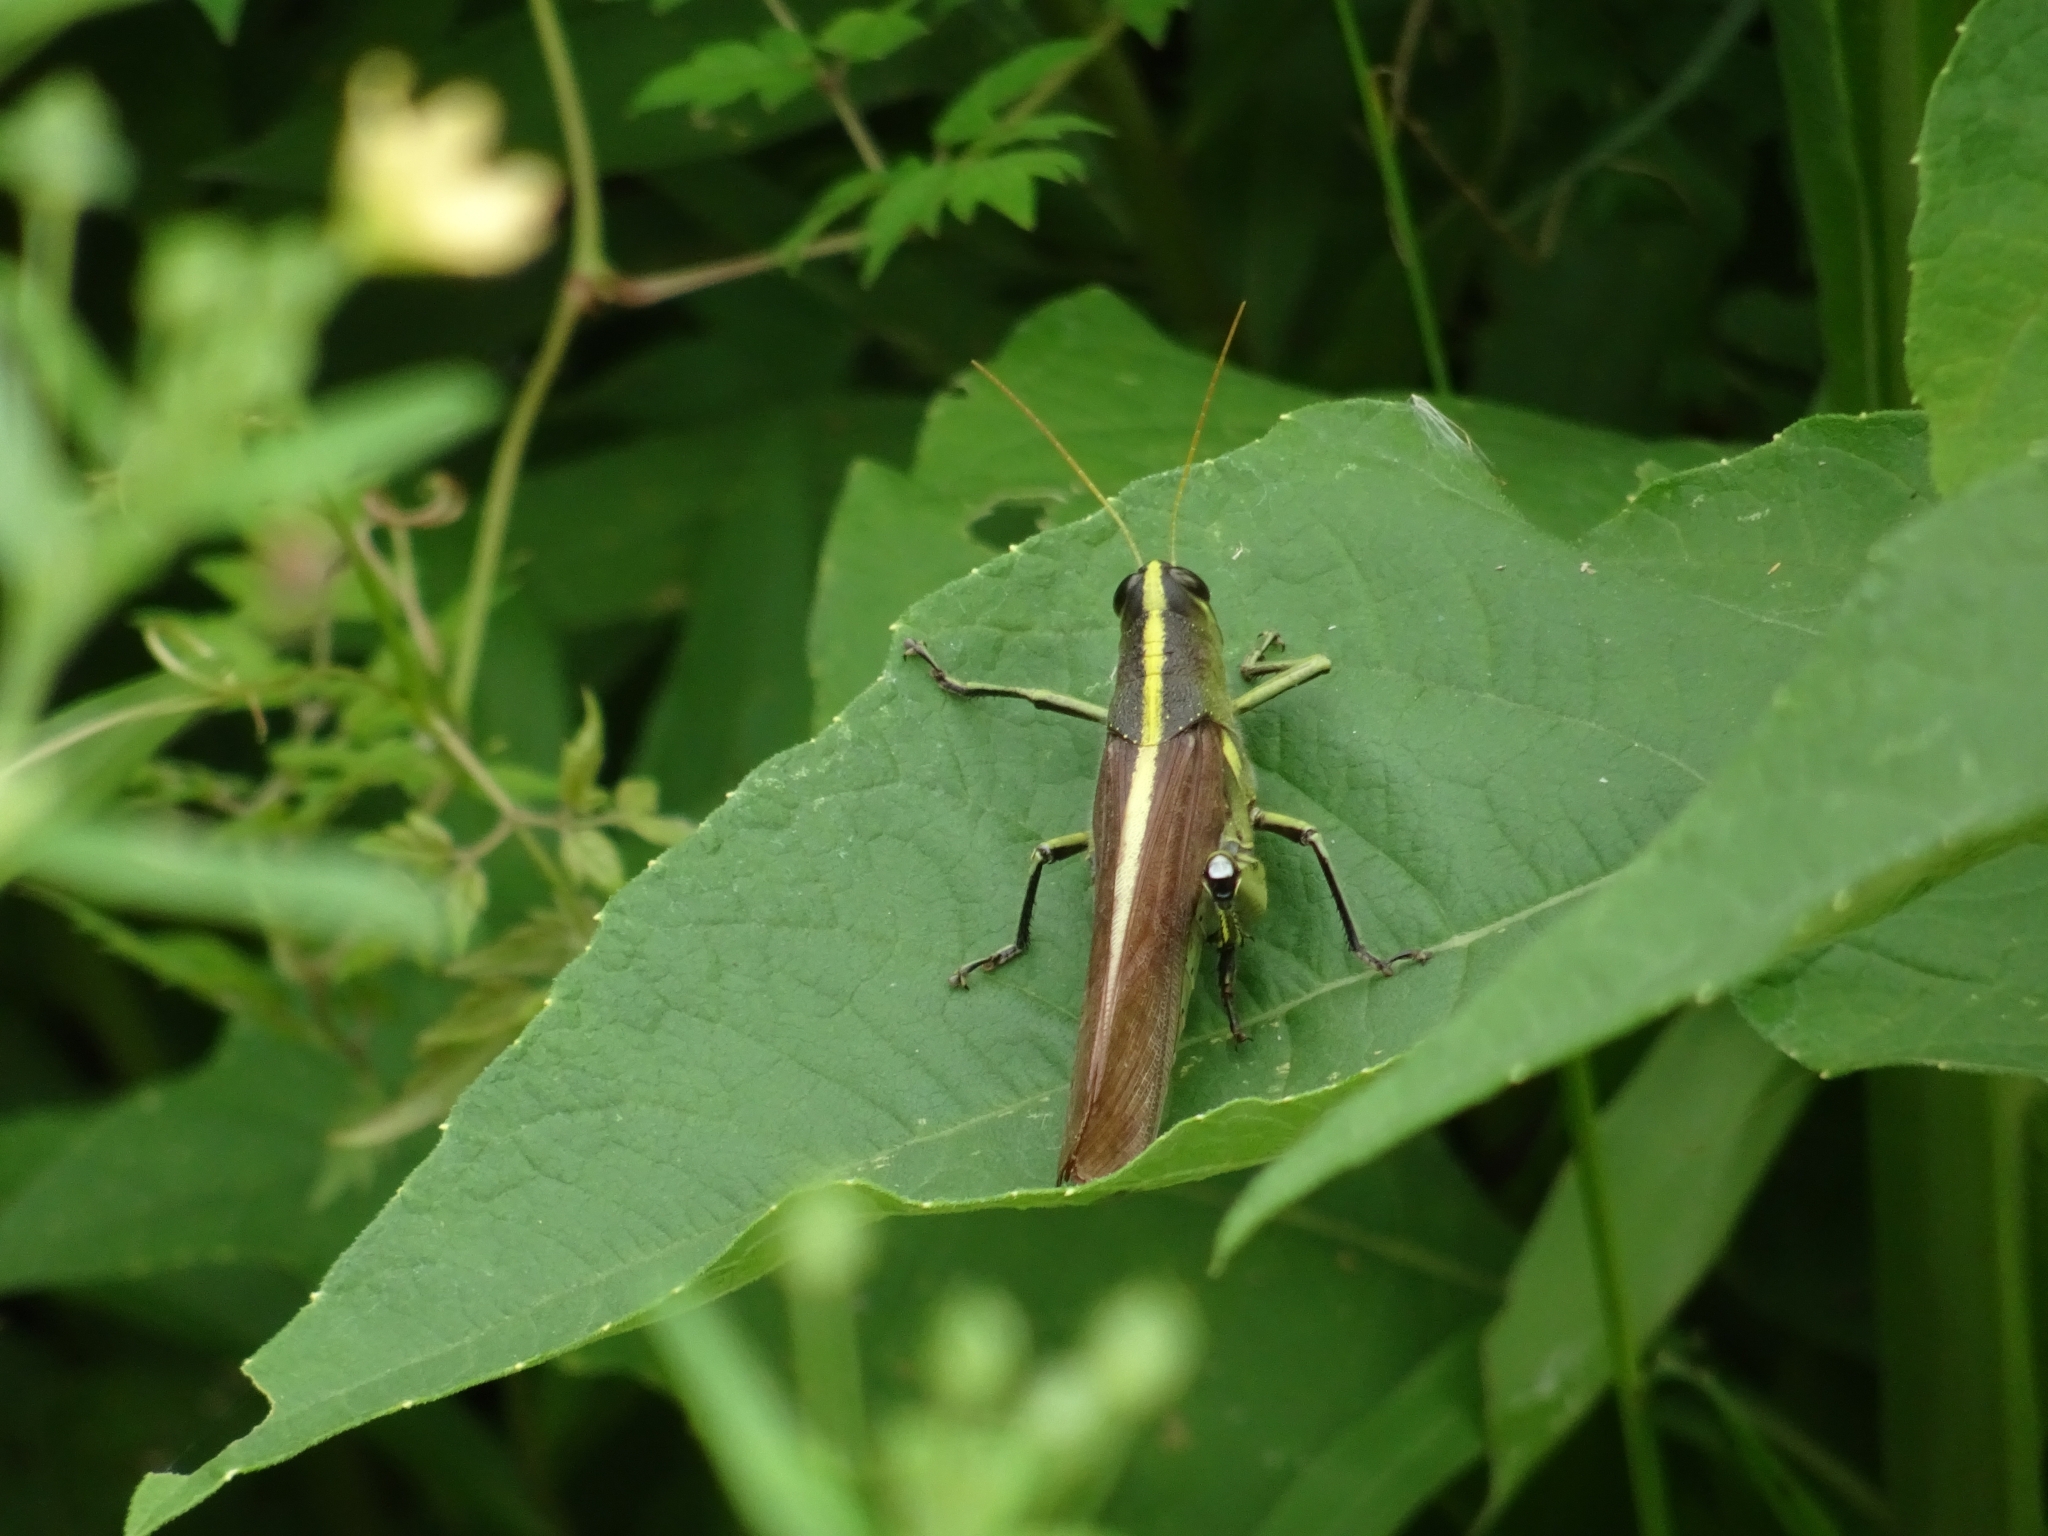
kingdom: Animalia
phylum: Arthropoda
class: Insecta
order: Orthoptera
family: Acrididae
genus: Schistocerca
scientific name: Schistocerca obscura
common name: Obscure bird grasshopper
